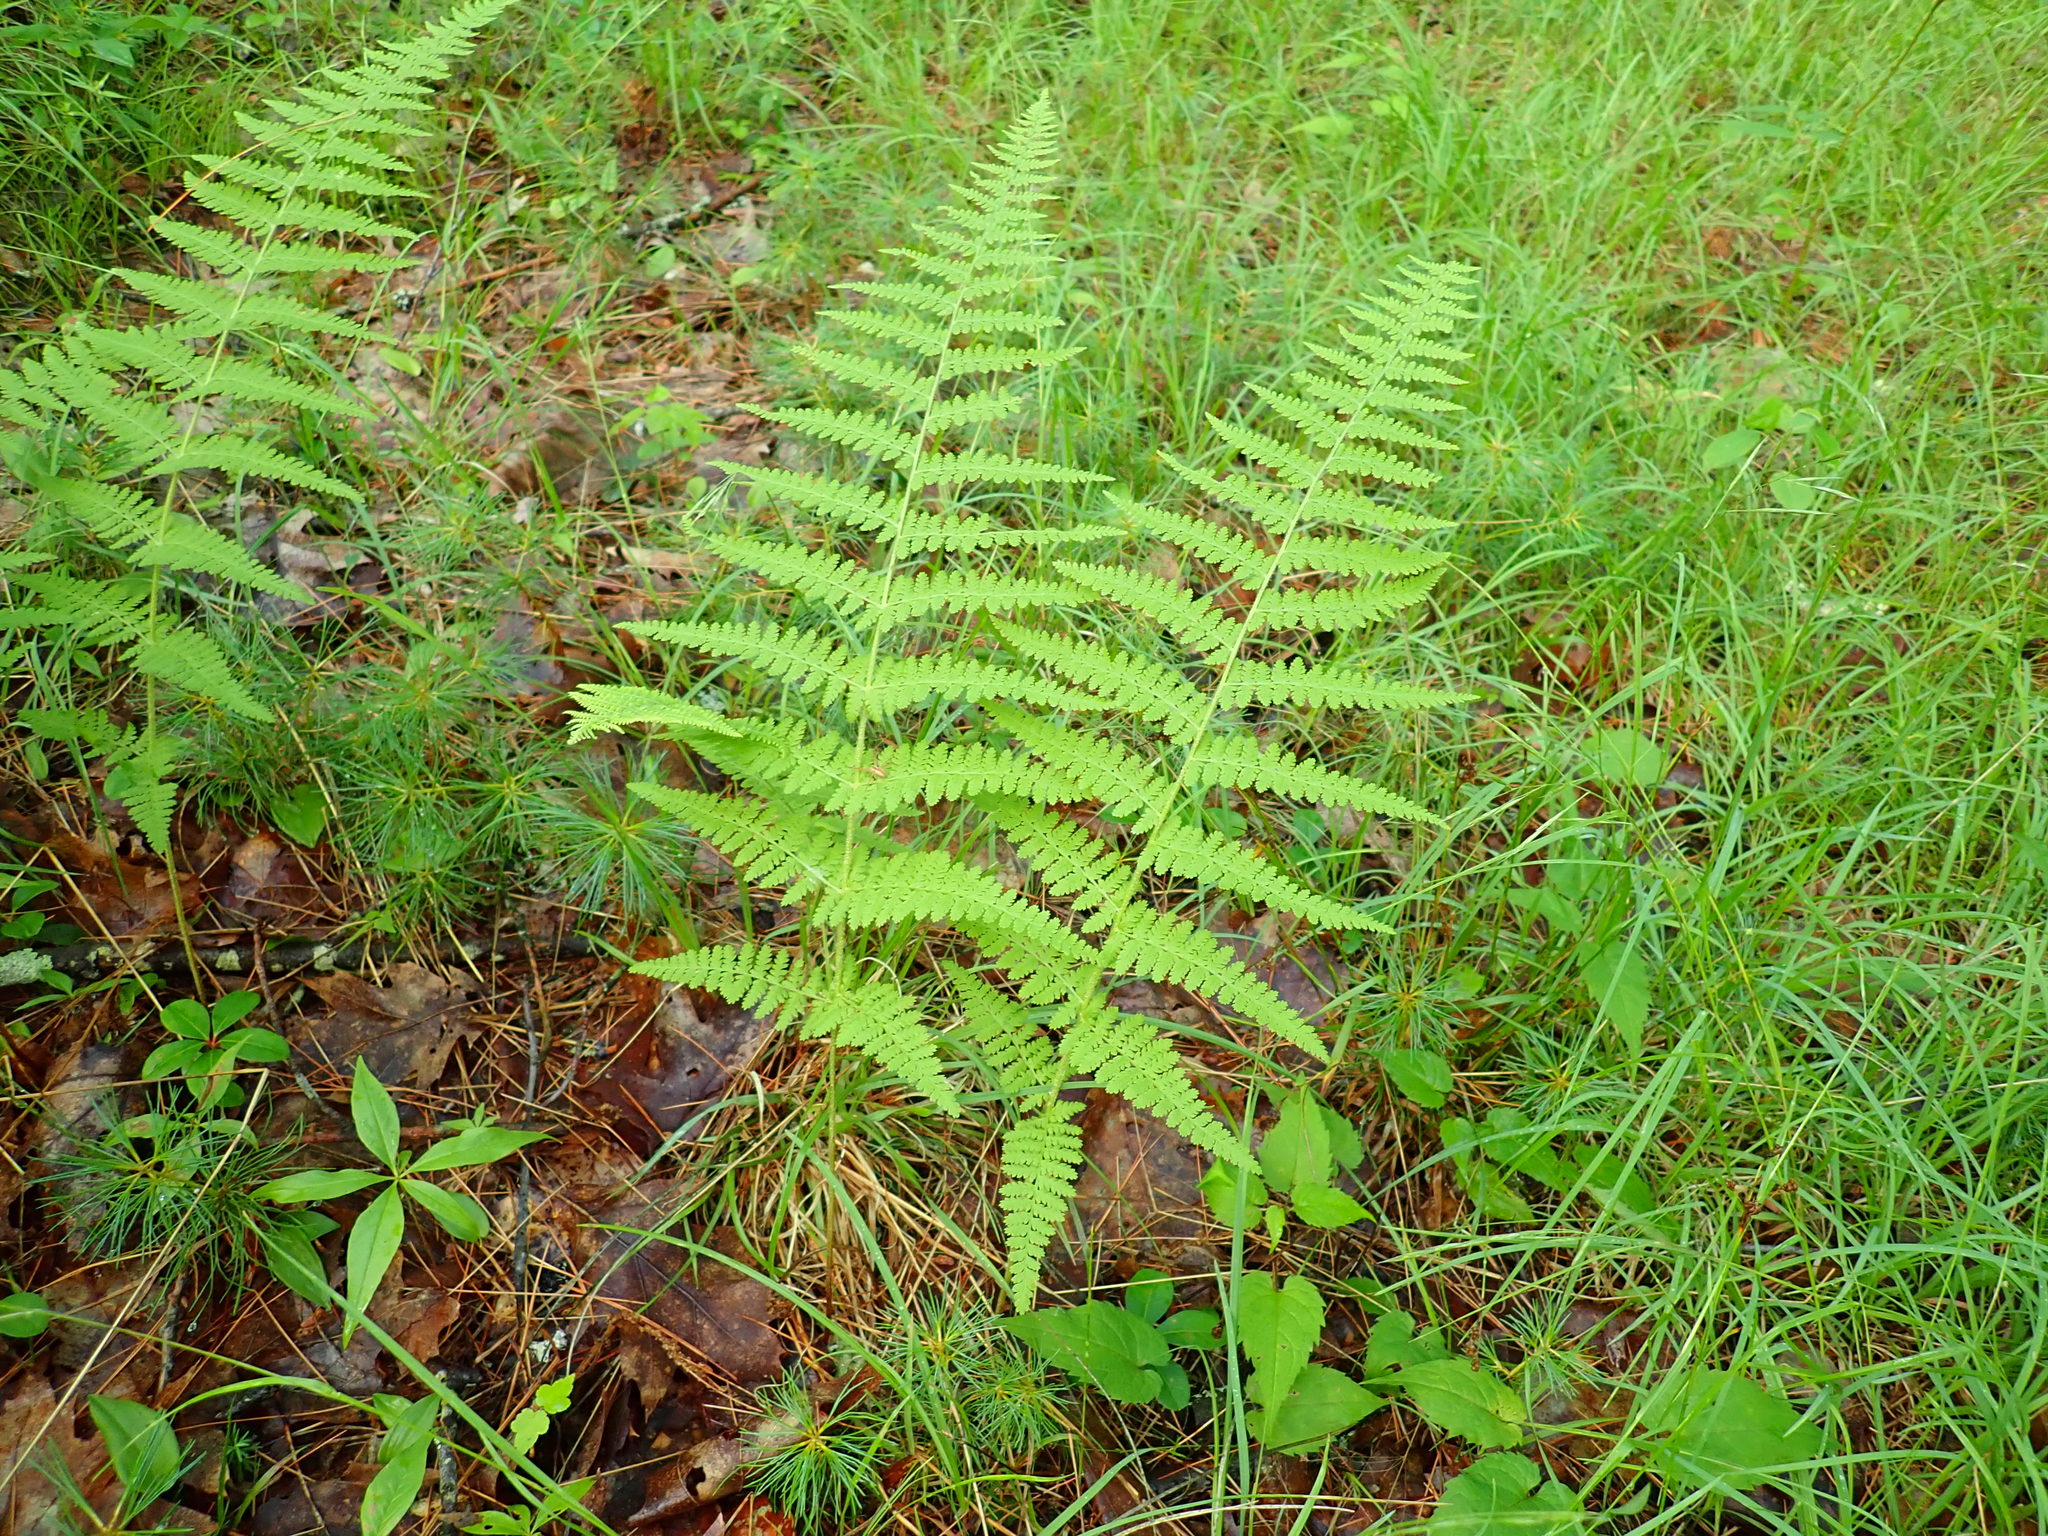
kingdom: Plantae
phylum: Tracheophyta
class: Polypodiopsida
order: Polypodiales
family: Dennstaedtiaceae
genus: Sitobolium
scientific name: Sitobolium punctilobum
